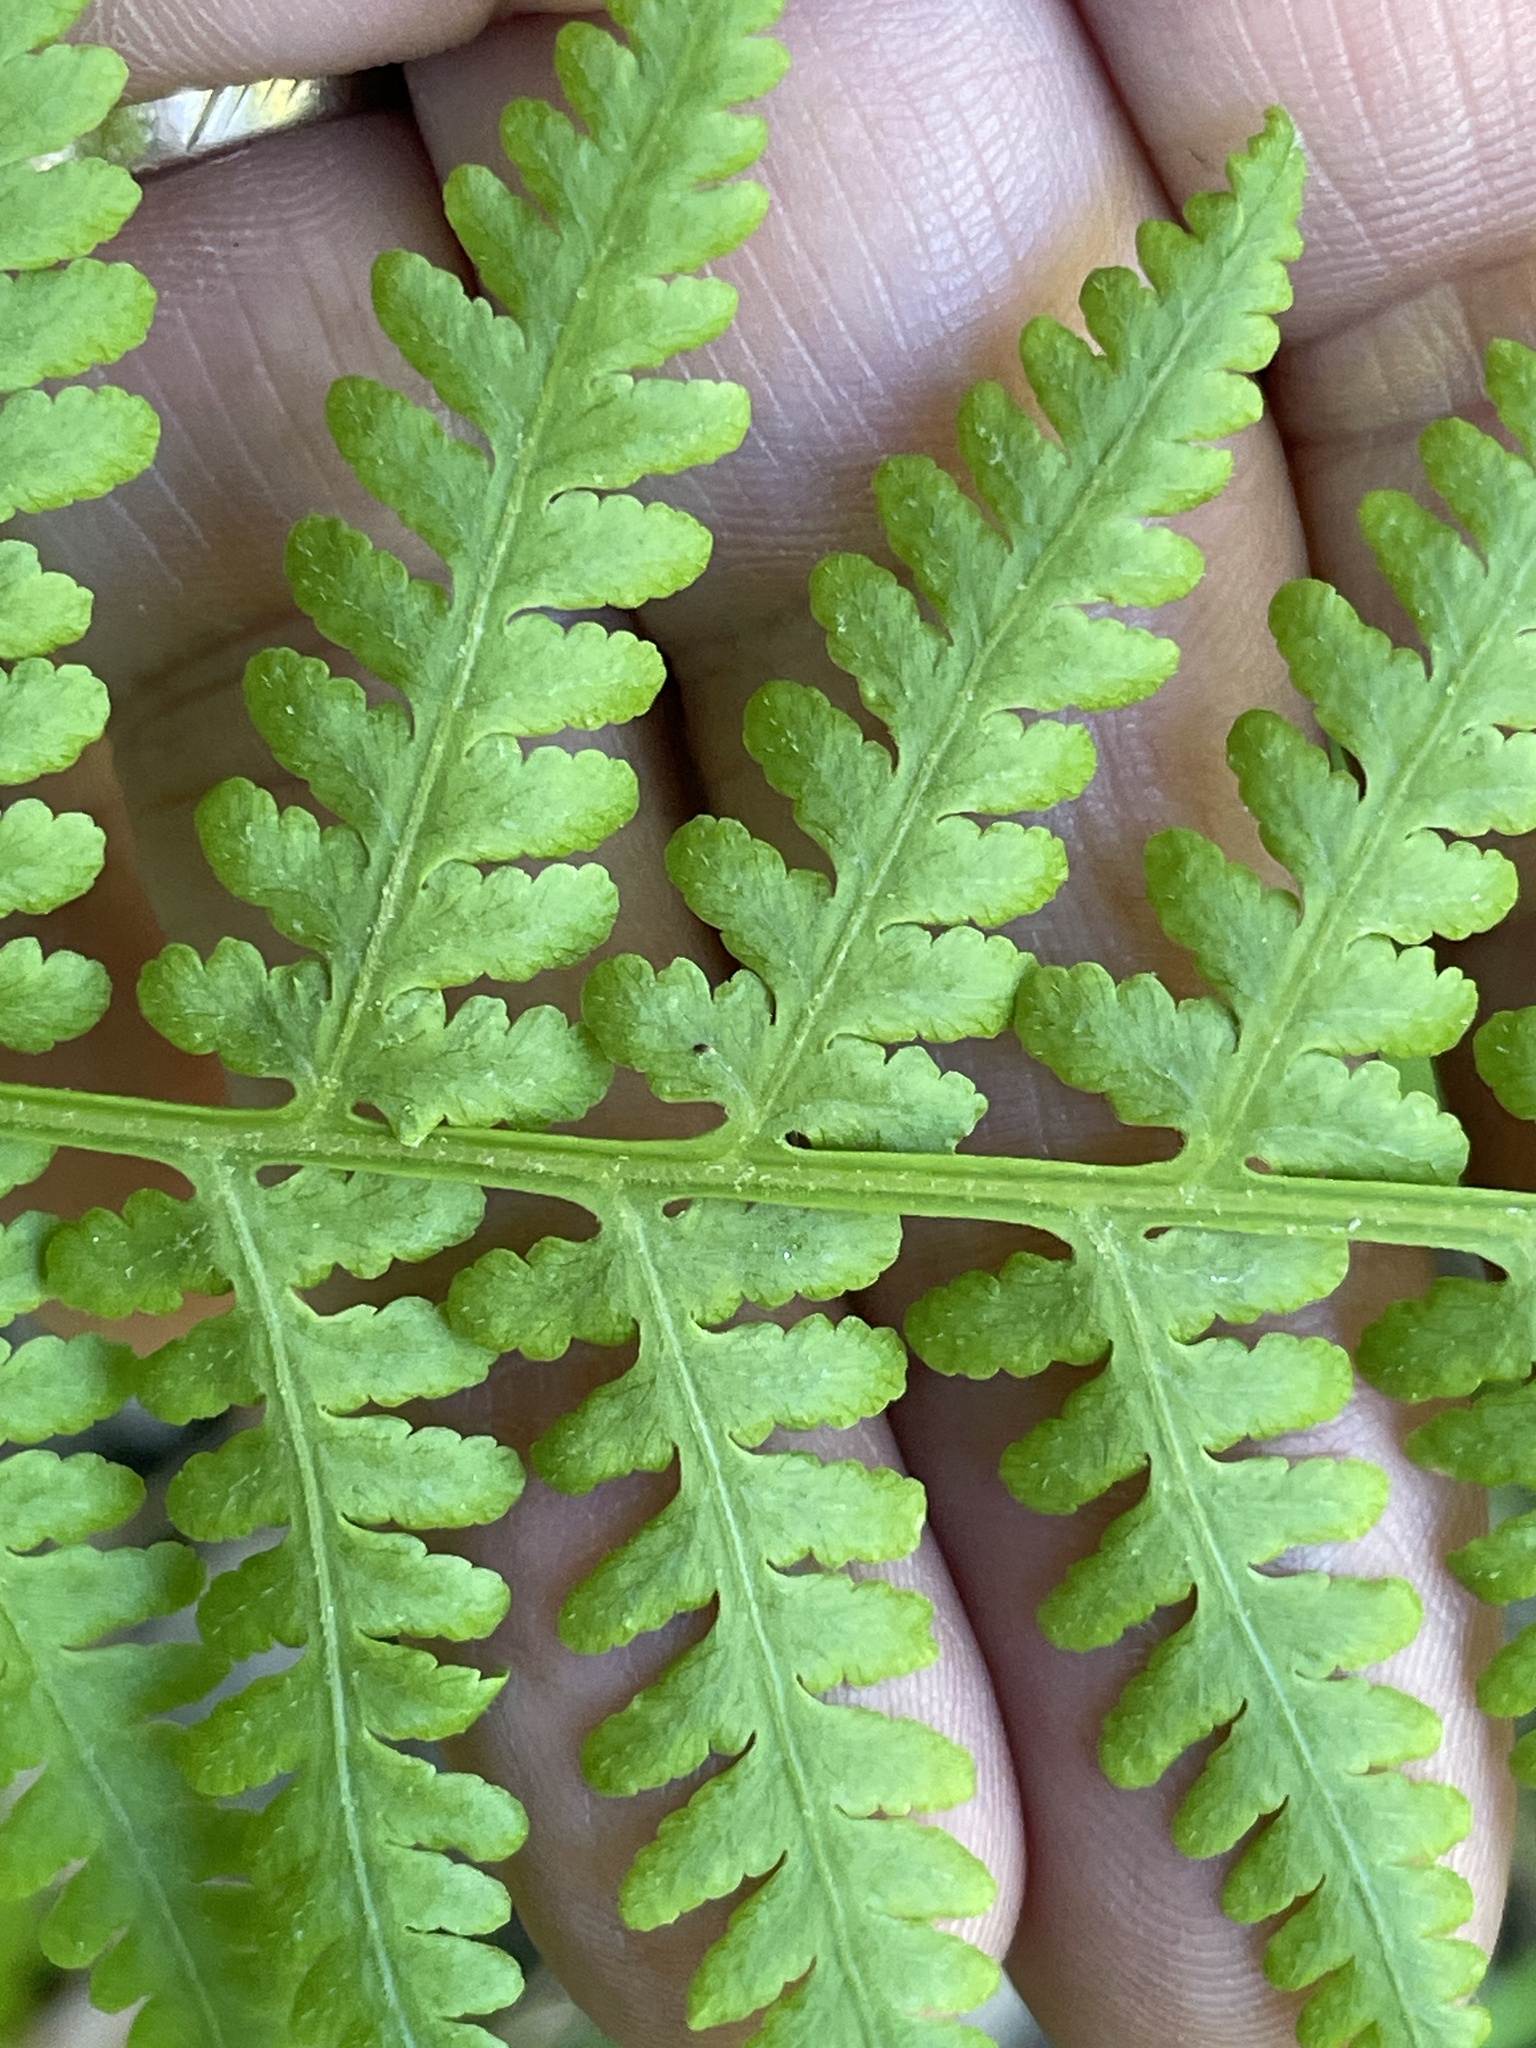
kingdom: Plantae
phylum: Tracheophyta
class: Polypodiopsida
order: Polypodiales
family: Thelypteridaceae
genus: Macrothelypteris
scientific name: Macrothelypteris torresiana
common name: Swordfern
